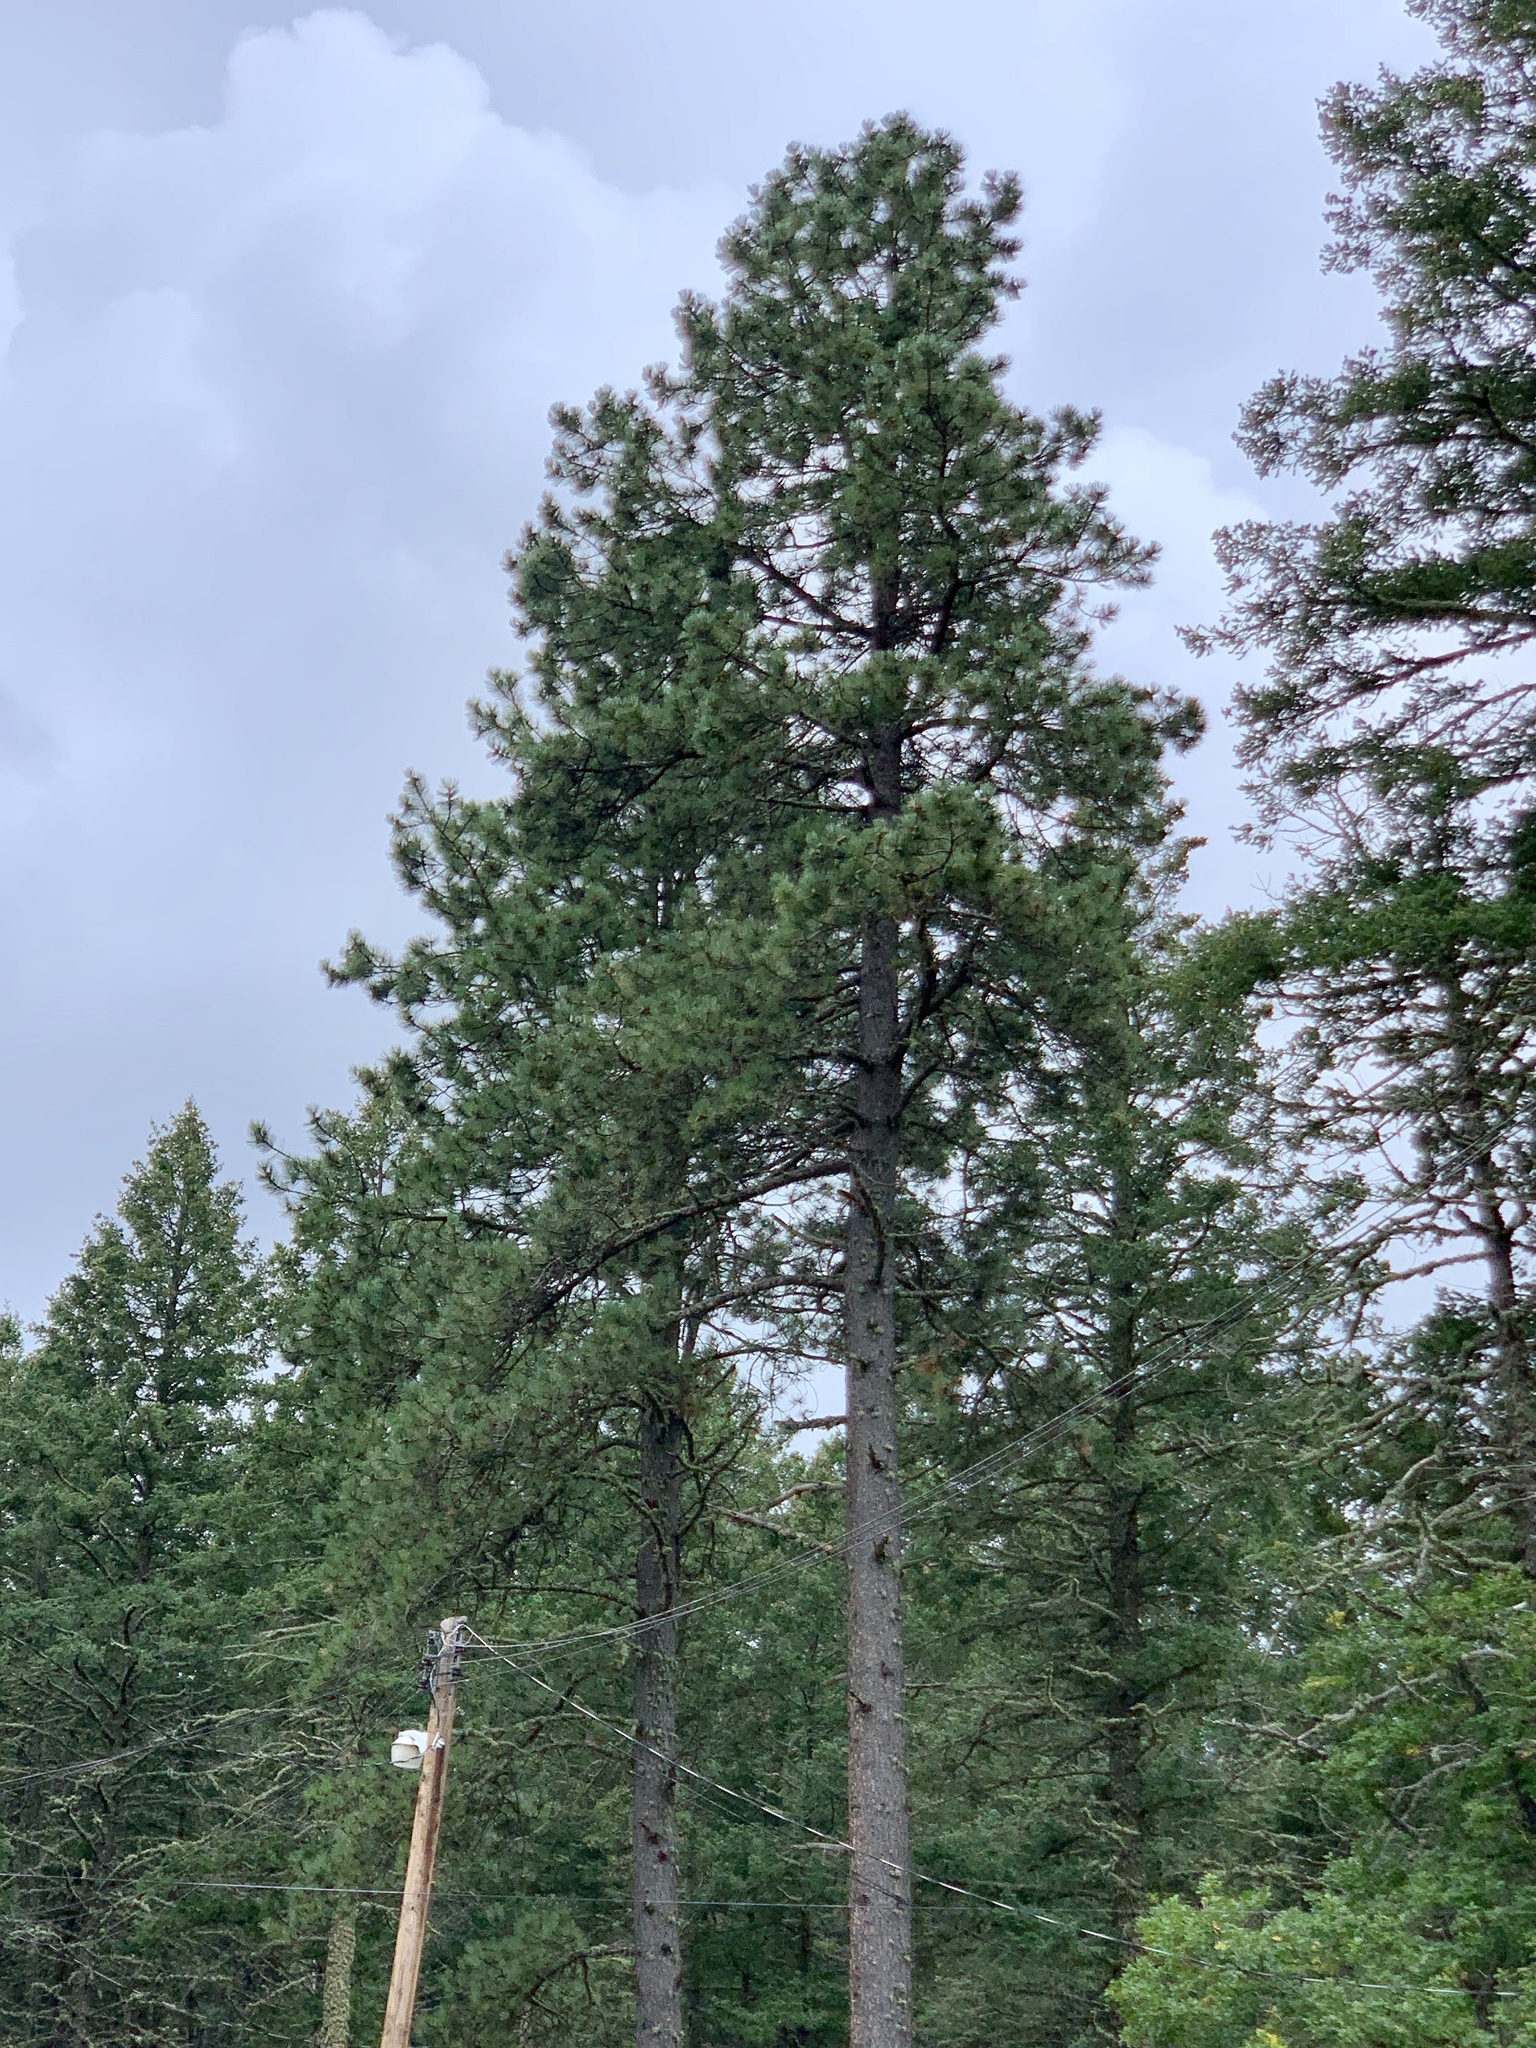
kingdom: Plantae
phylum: Tracheophyta
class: Pinopsida
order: Pinales
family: Pinaceae
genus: Pinus
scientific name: Pinus ponderosa
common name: Western yellow-pine
